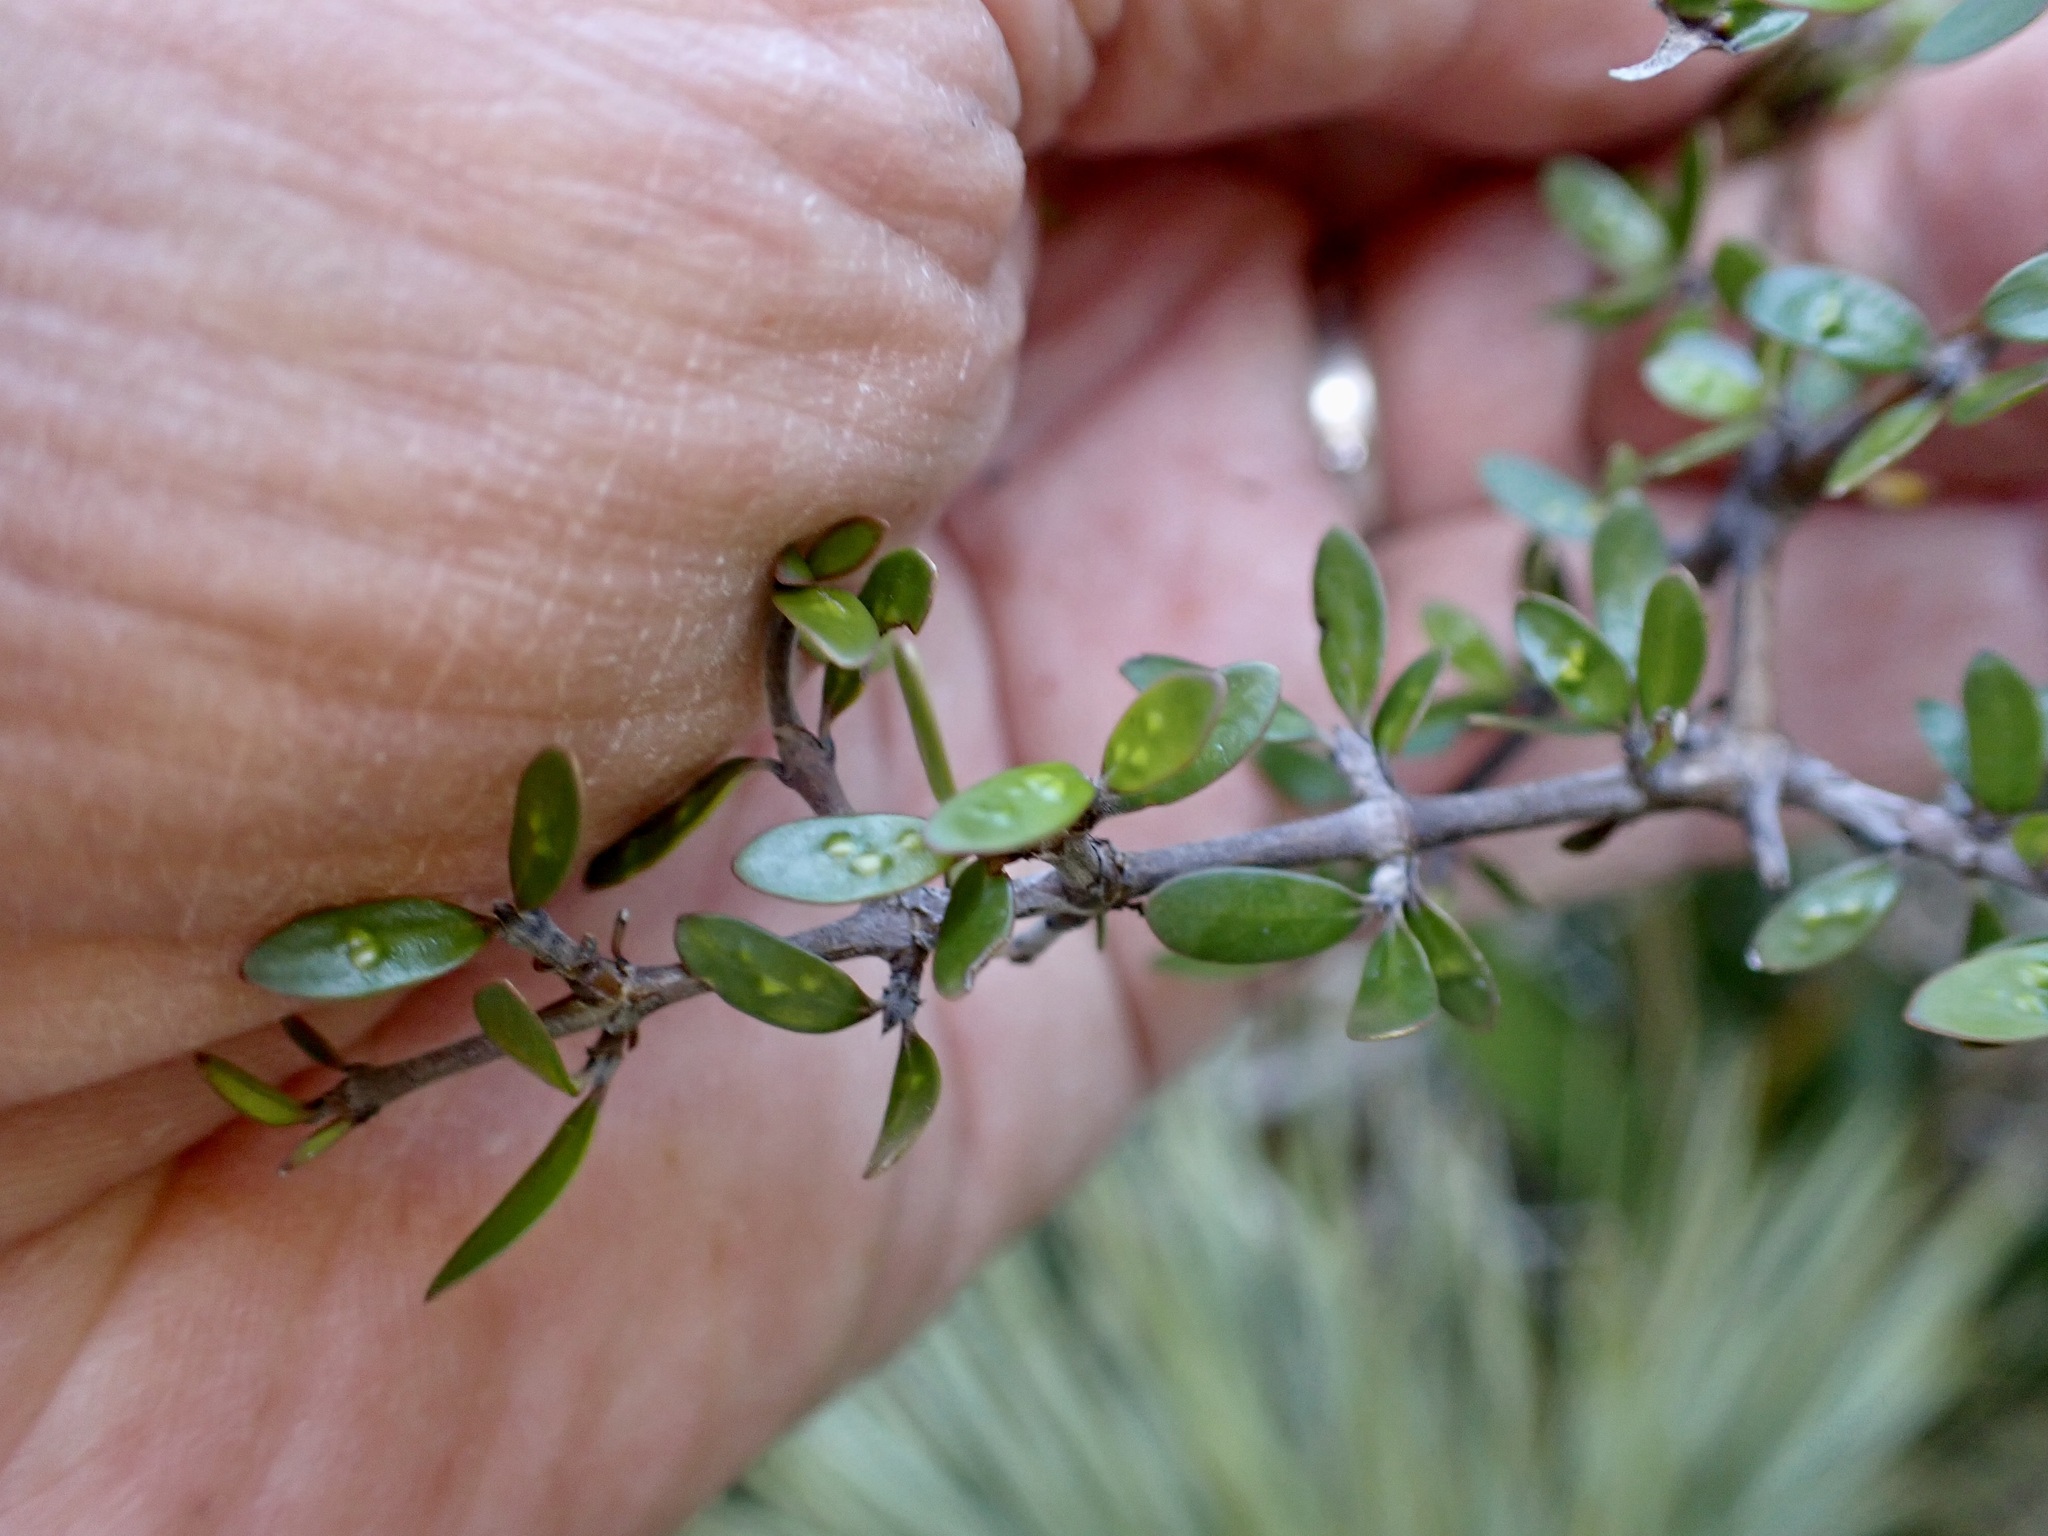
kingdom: Plantae
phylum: Tracheophyta
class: Magnoliopsida
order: Gentianales
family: Rubiaceae
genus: Coprosma
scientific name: Coprosma crassifolia
